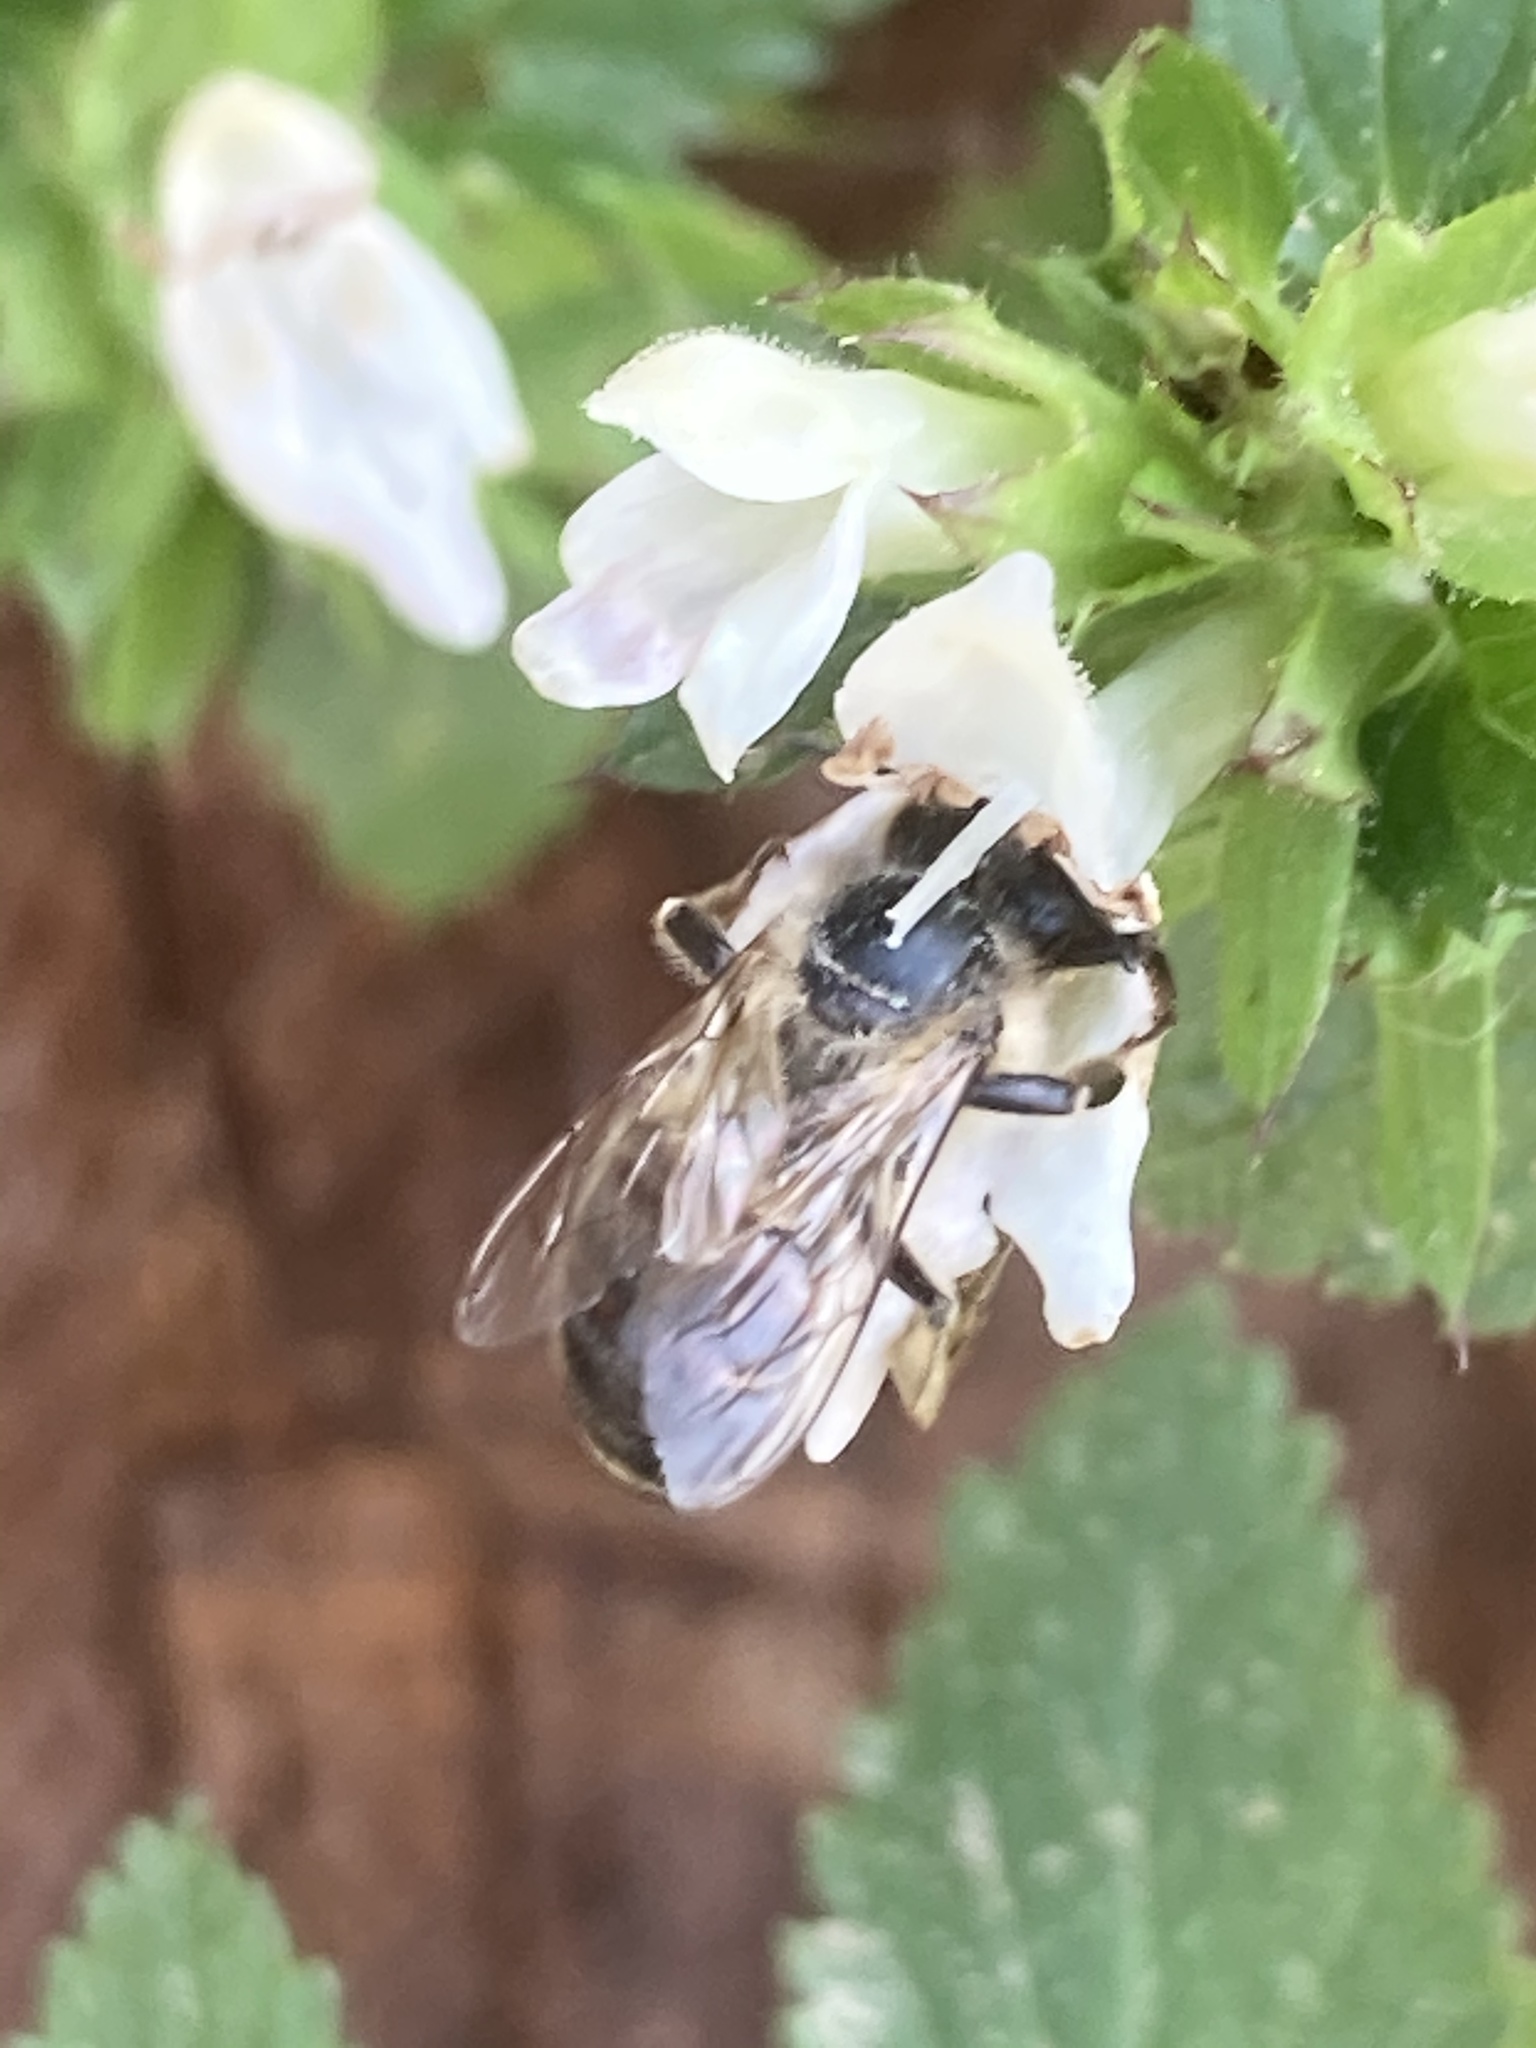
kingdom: Animalia
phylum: Arthropoda
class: Insecta
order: Hymenoptera
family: Apidae
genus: Apis
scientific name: Apis mellifera
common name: Honey bee
